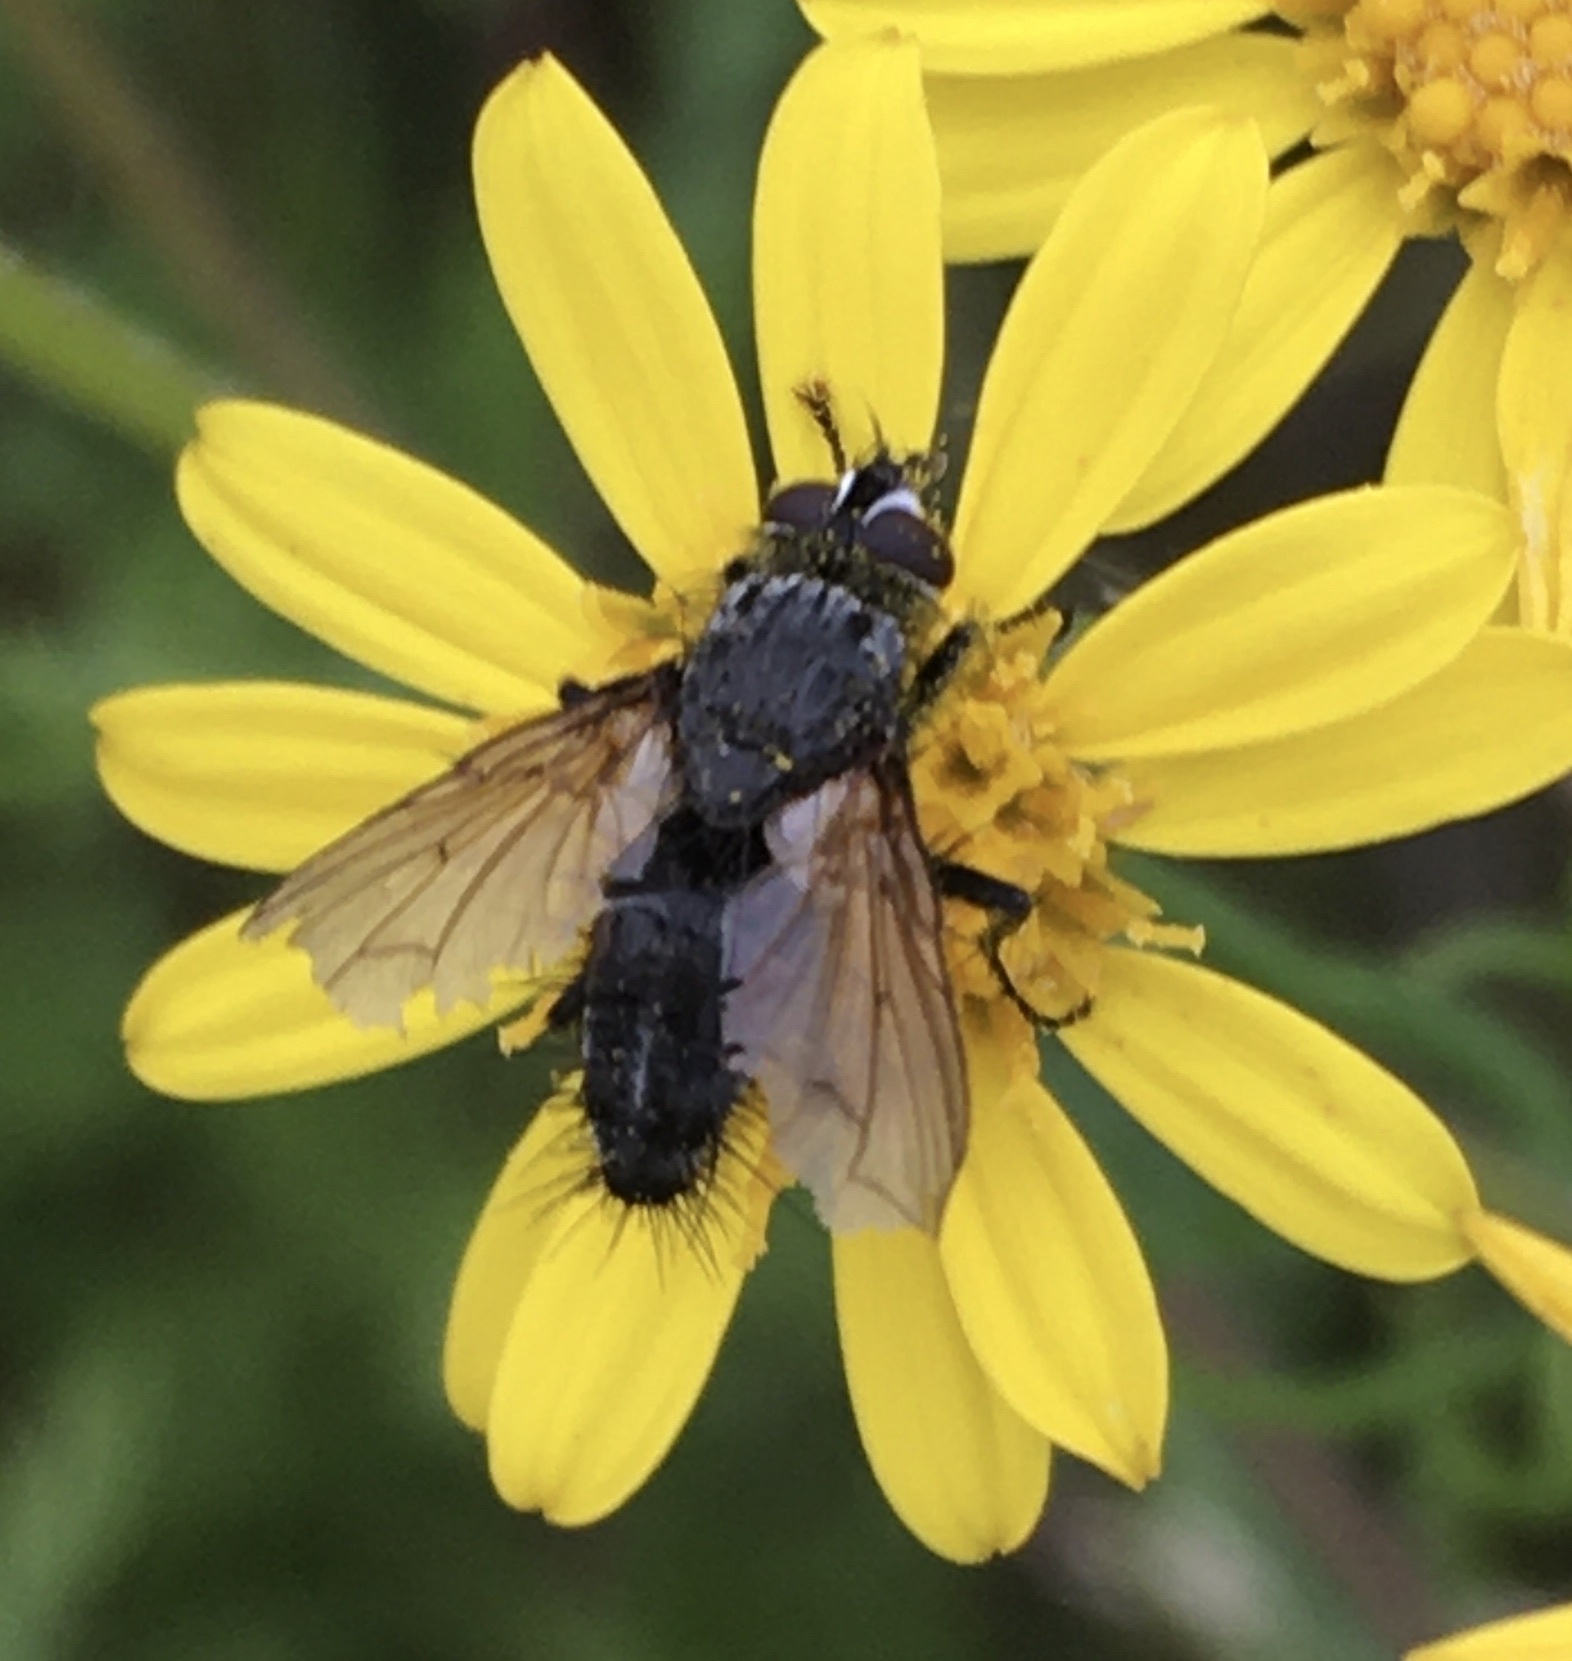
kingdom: Animalia
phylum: Arthropoda
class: Insecta
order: Diptera
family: Tachinidae
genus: Eriothrix
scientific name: Eriothrix rufomaculatus
